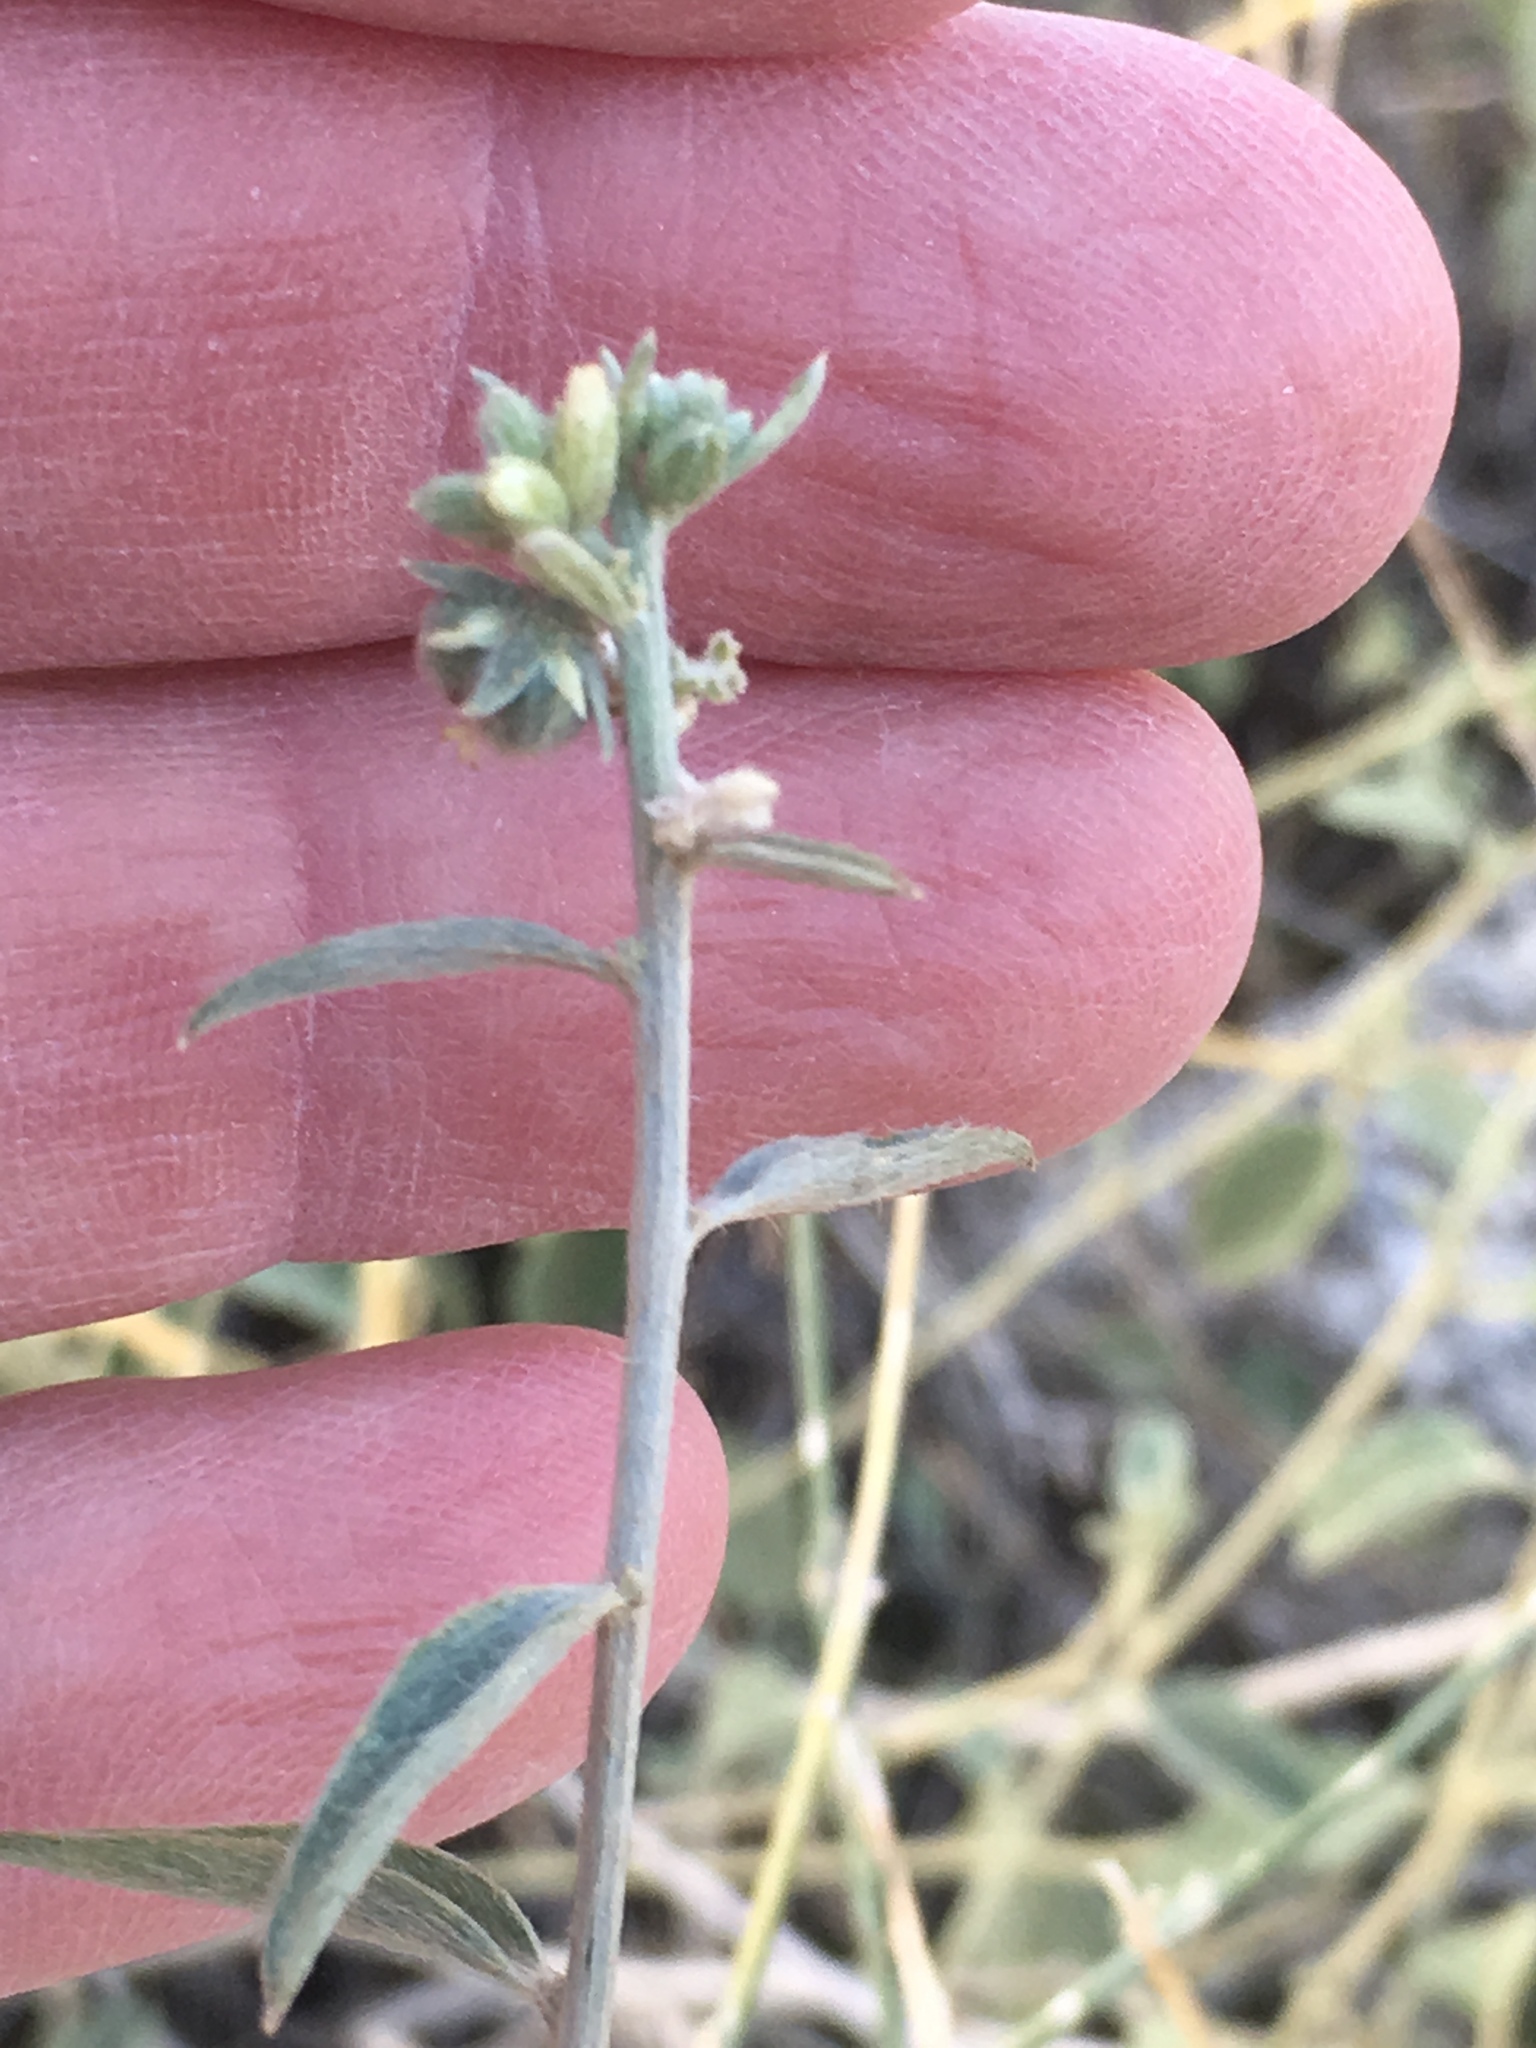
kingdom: Plantae
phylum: Tracheophyta
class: Magnoliopsida
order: Malpighiales
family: Euphorbiaceae
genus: Ditaxis
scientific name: Ditaxis lanceolata
